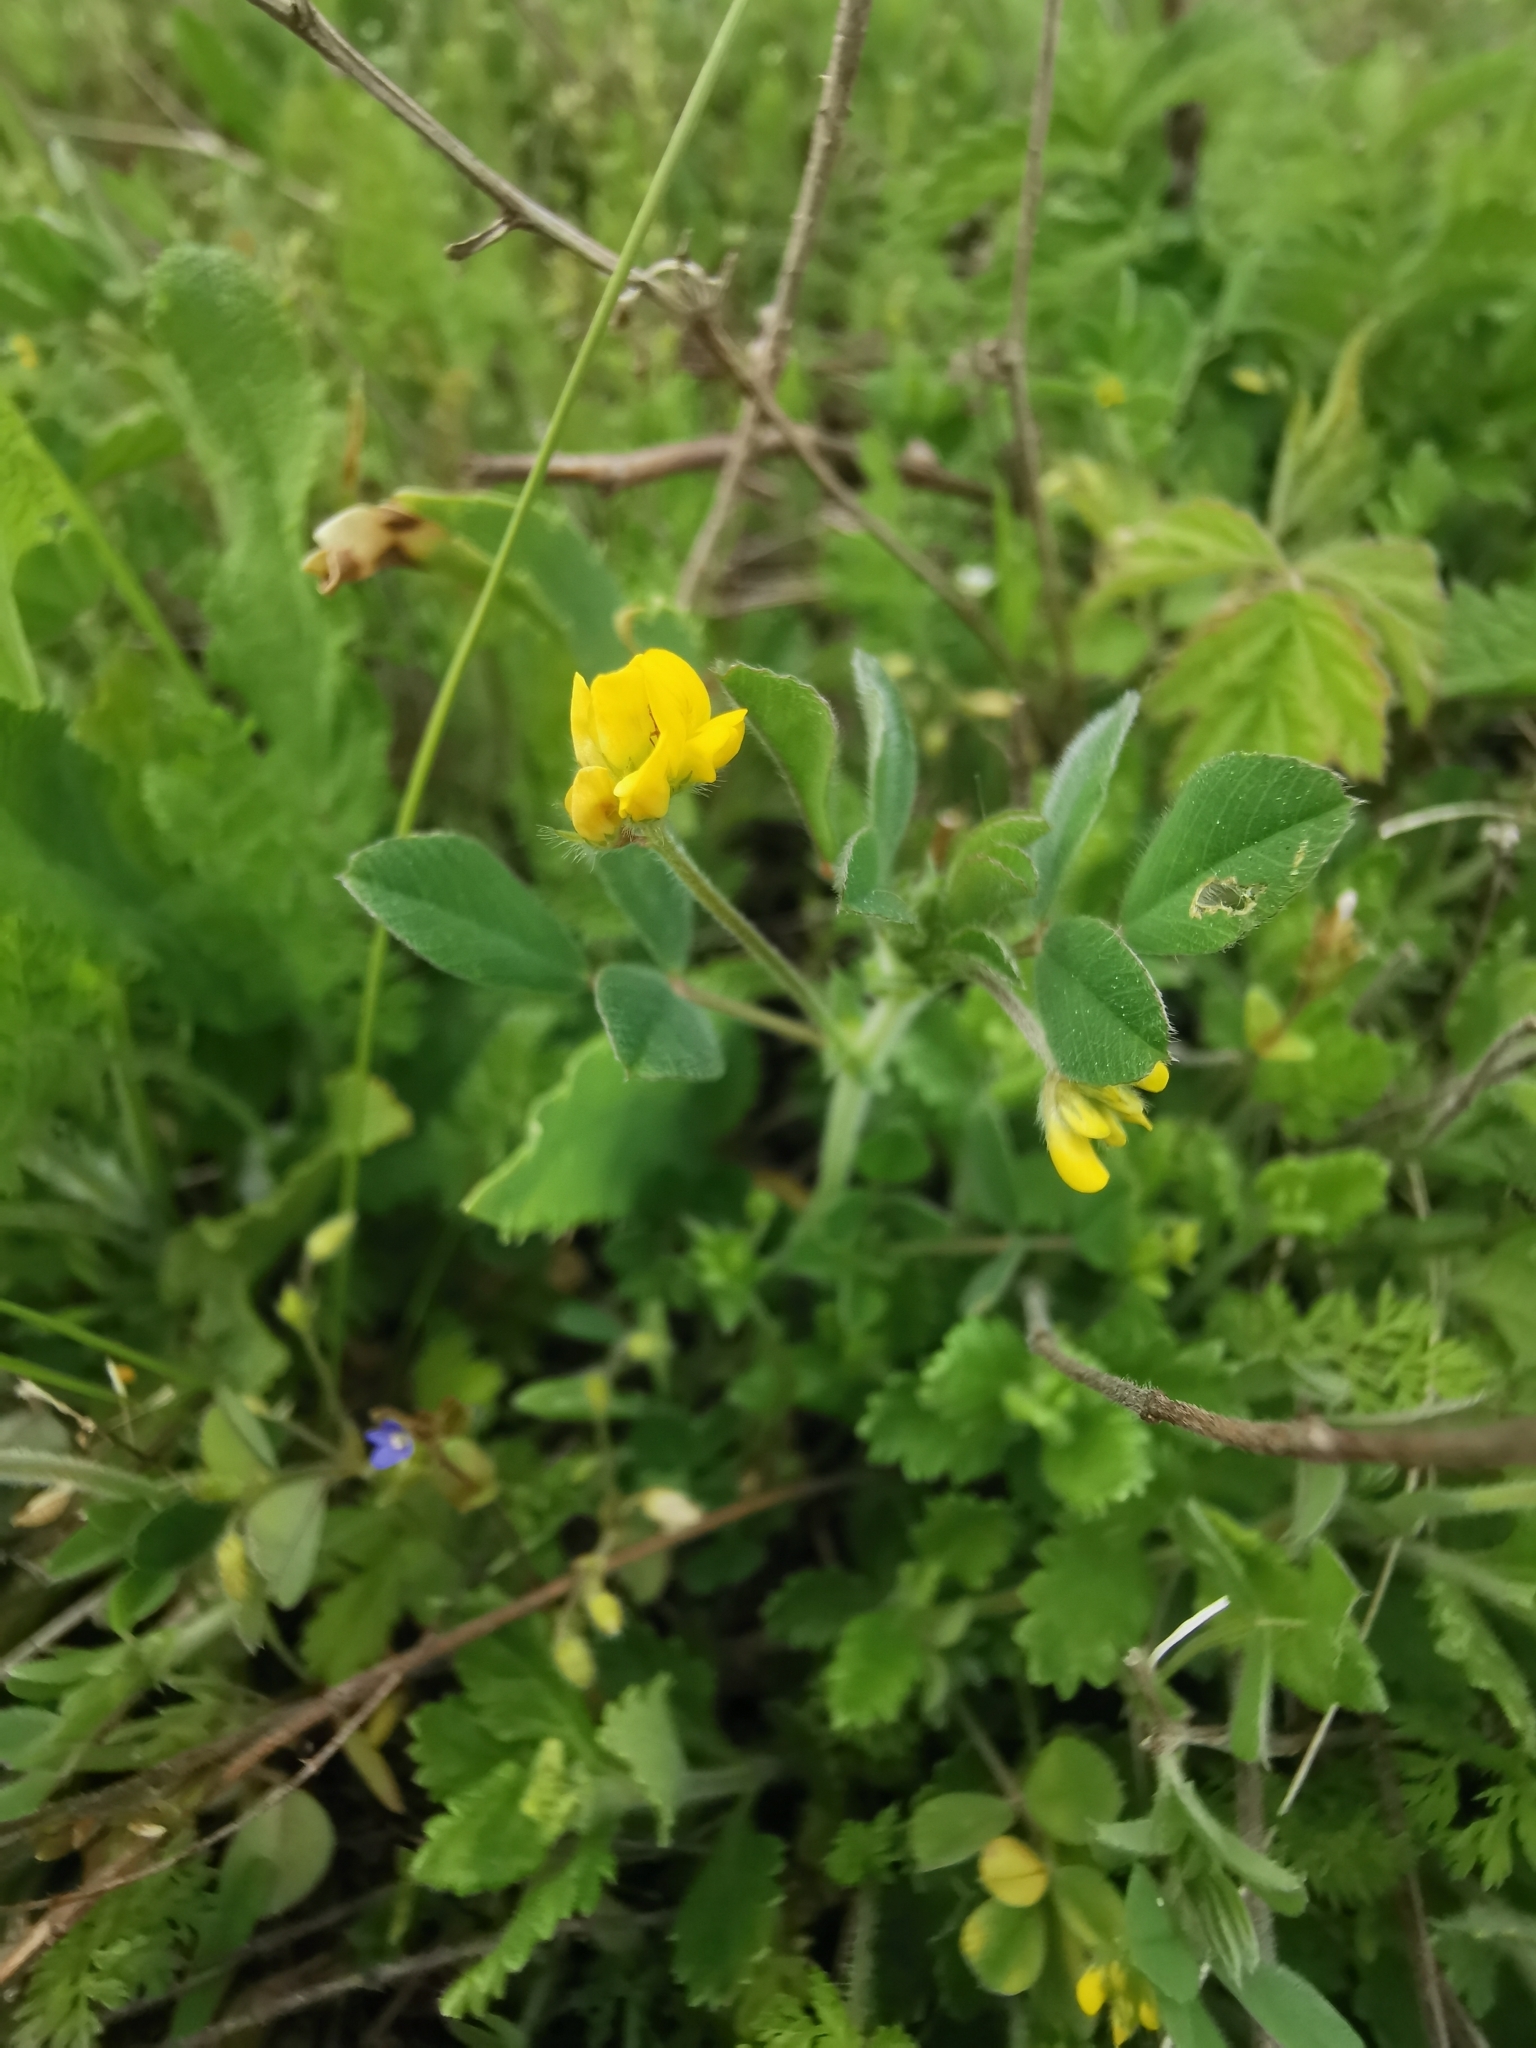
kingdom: Plantae
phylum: Tracheophyta
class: Magnoliopsida
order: Fabales
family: Fabaceae
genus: Medicago
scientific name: Medicago minima
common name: Little bur-clover
